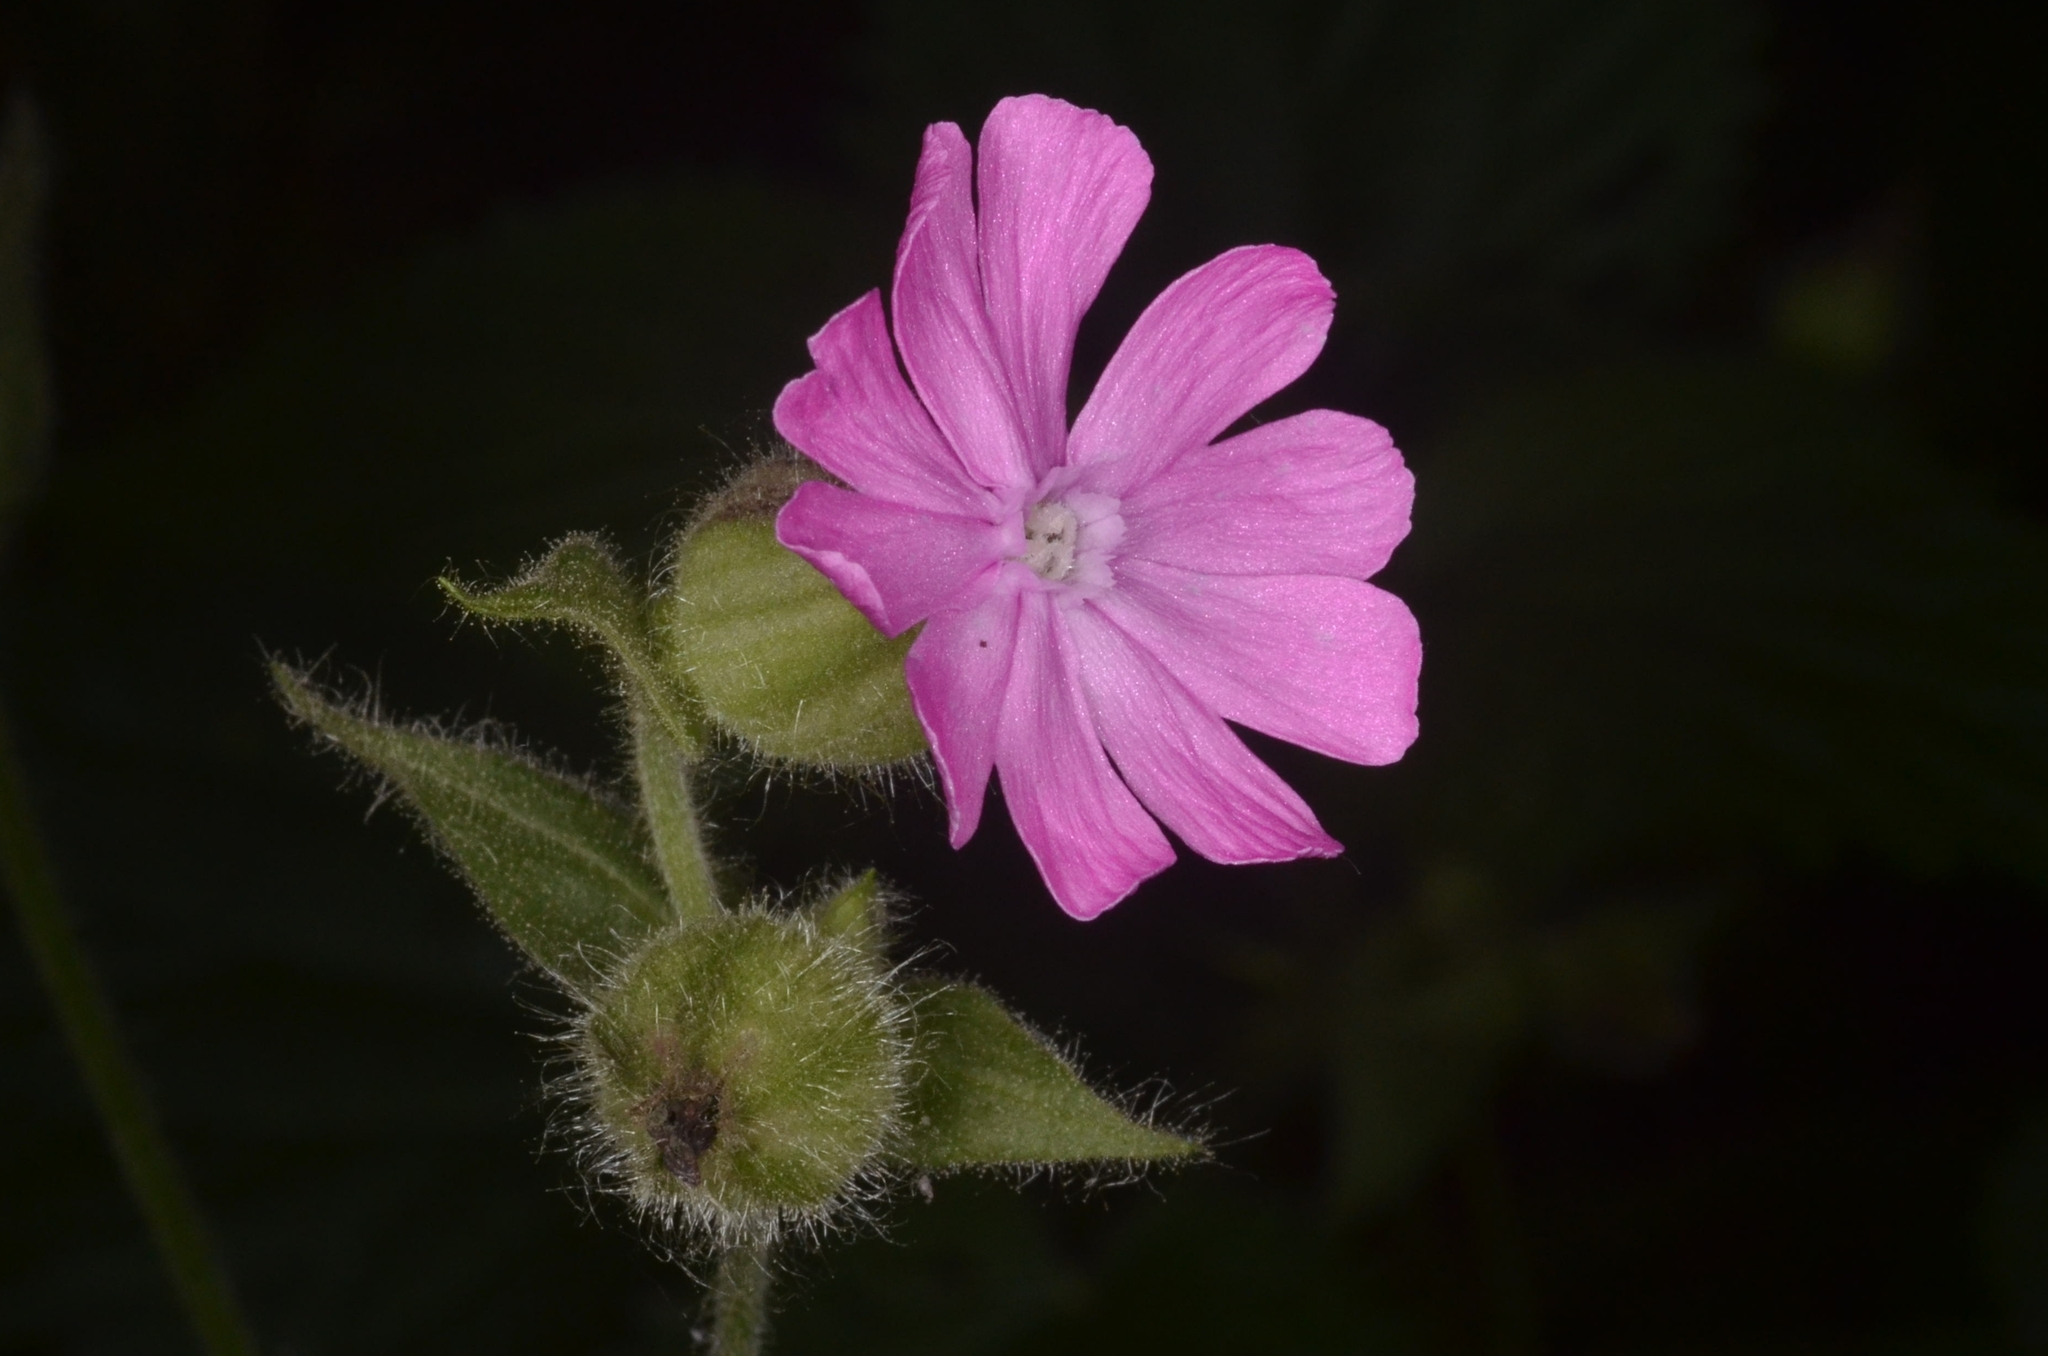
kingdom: Plantae
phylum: Tracheophyta
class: Magnoliopsida
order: Caryophyllales
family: Caryophyllaceae
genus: Silene
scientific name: Silene dioica
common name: Red campion
